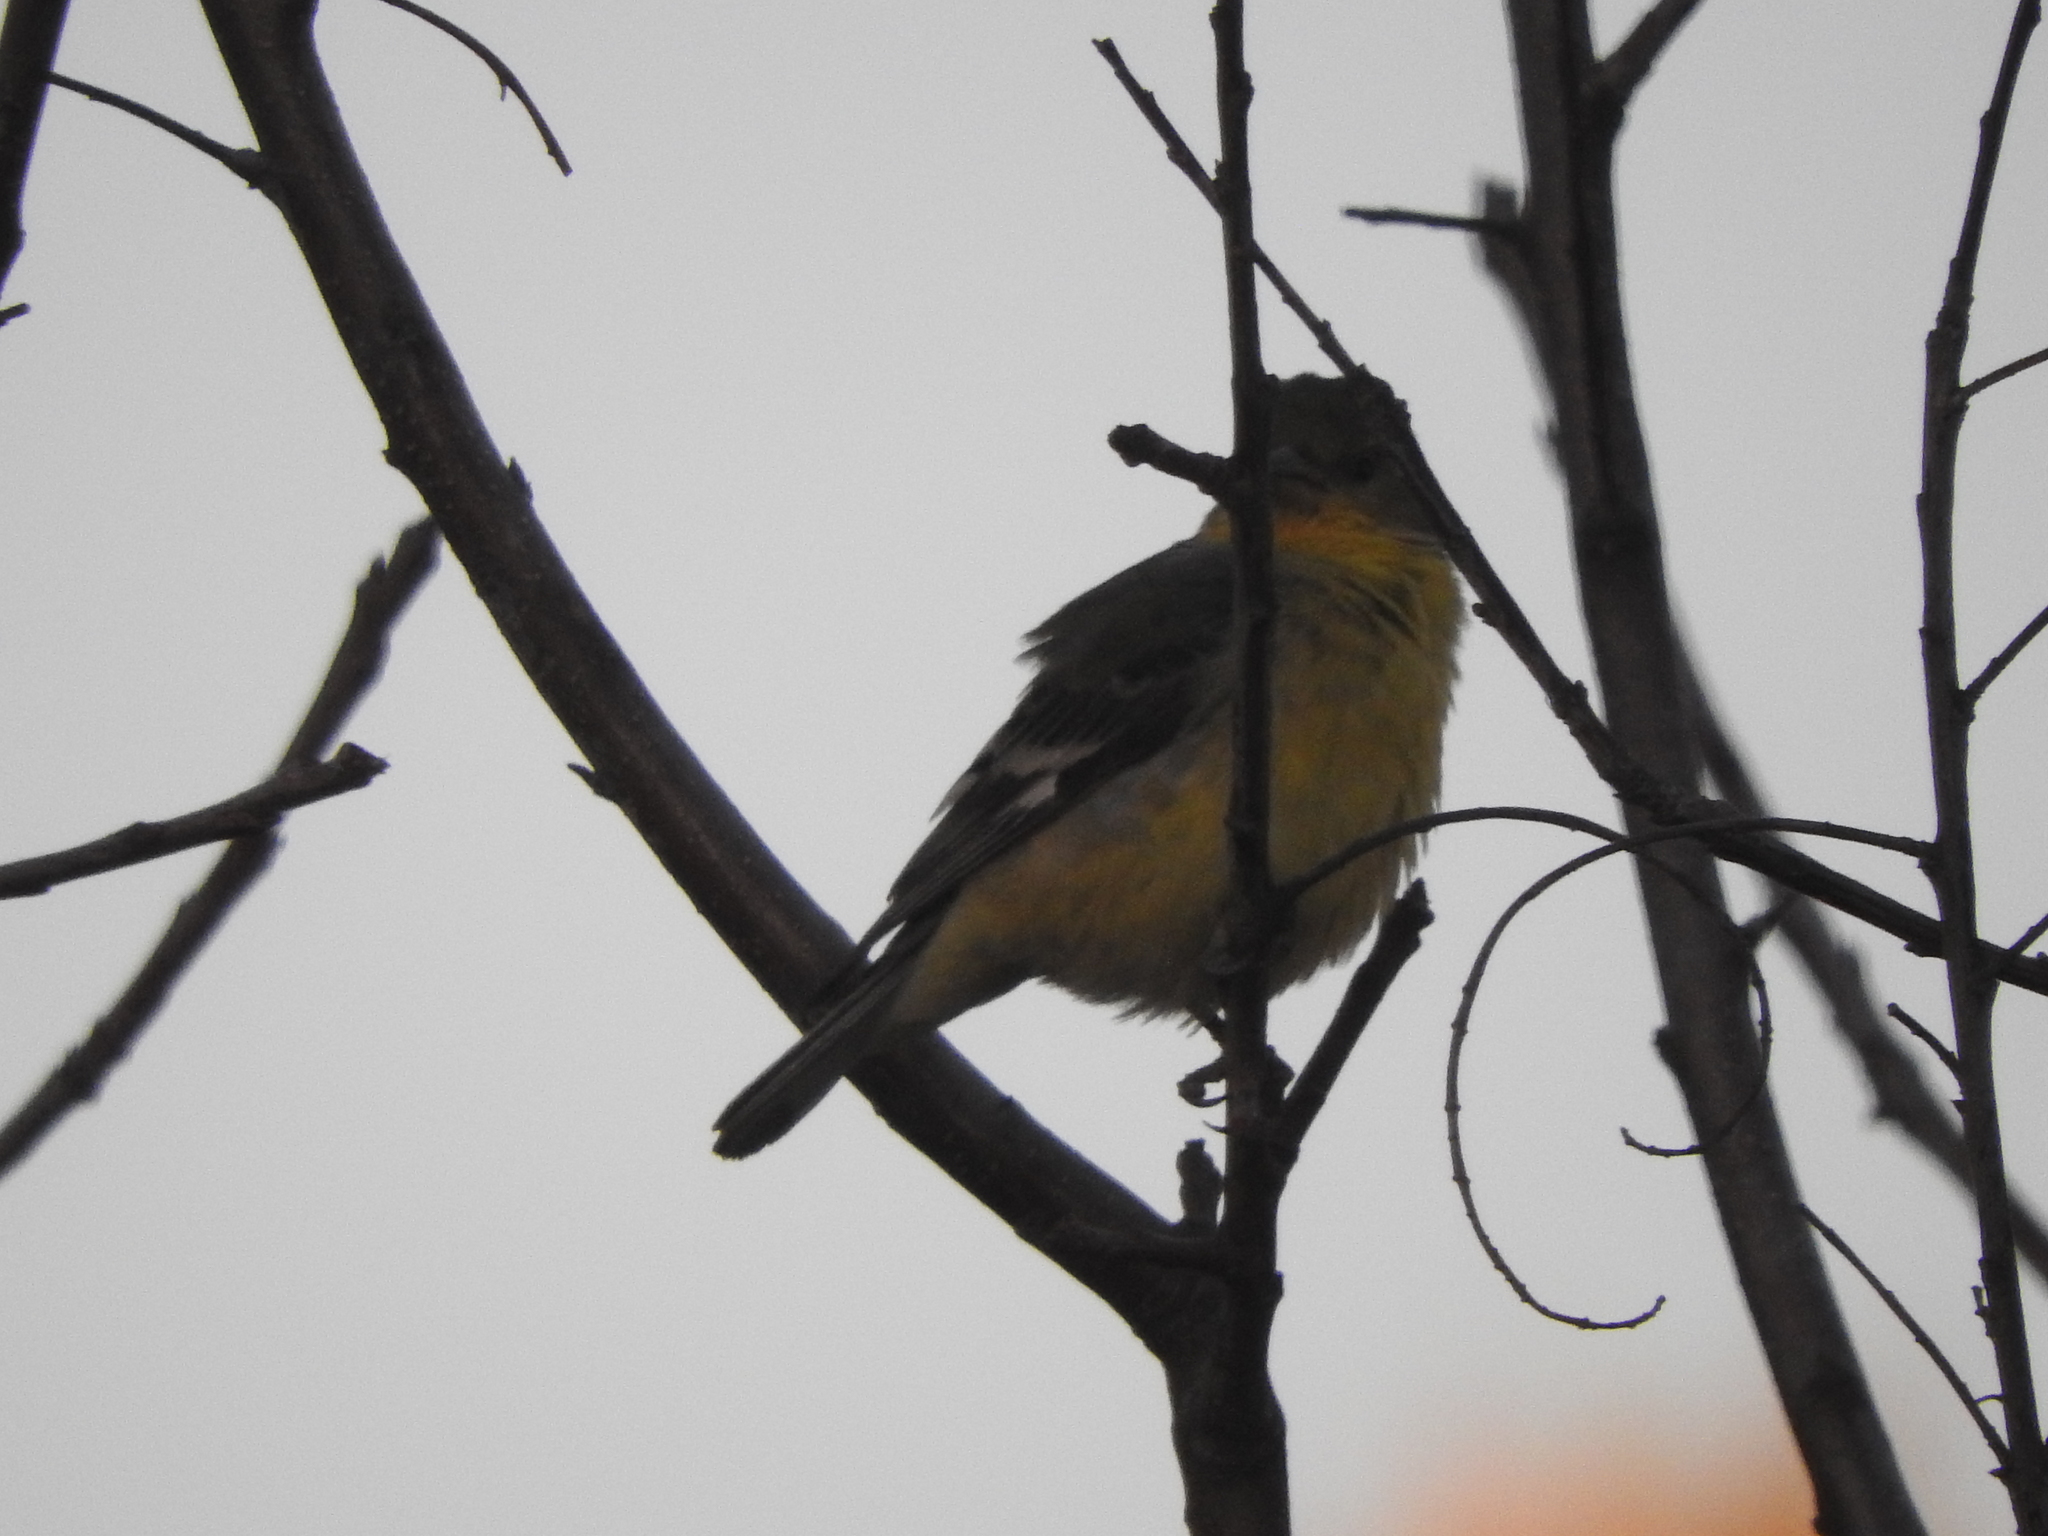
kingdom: Animalia
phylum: Chordata
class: Aves
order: Passeriformes
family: Fringillidae
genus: Spinus
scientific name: Spinus psaltria
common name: Lesser goldfinch
